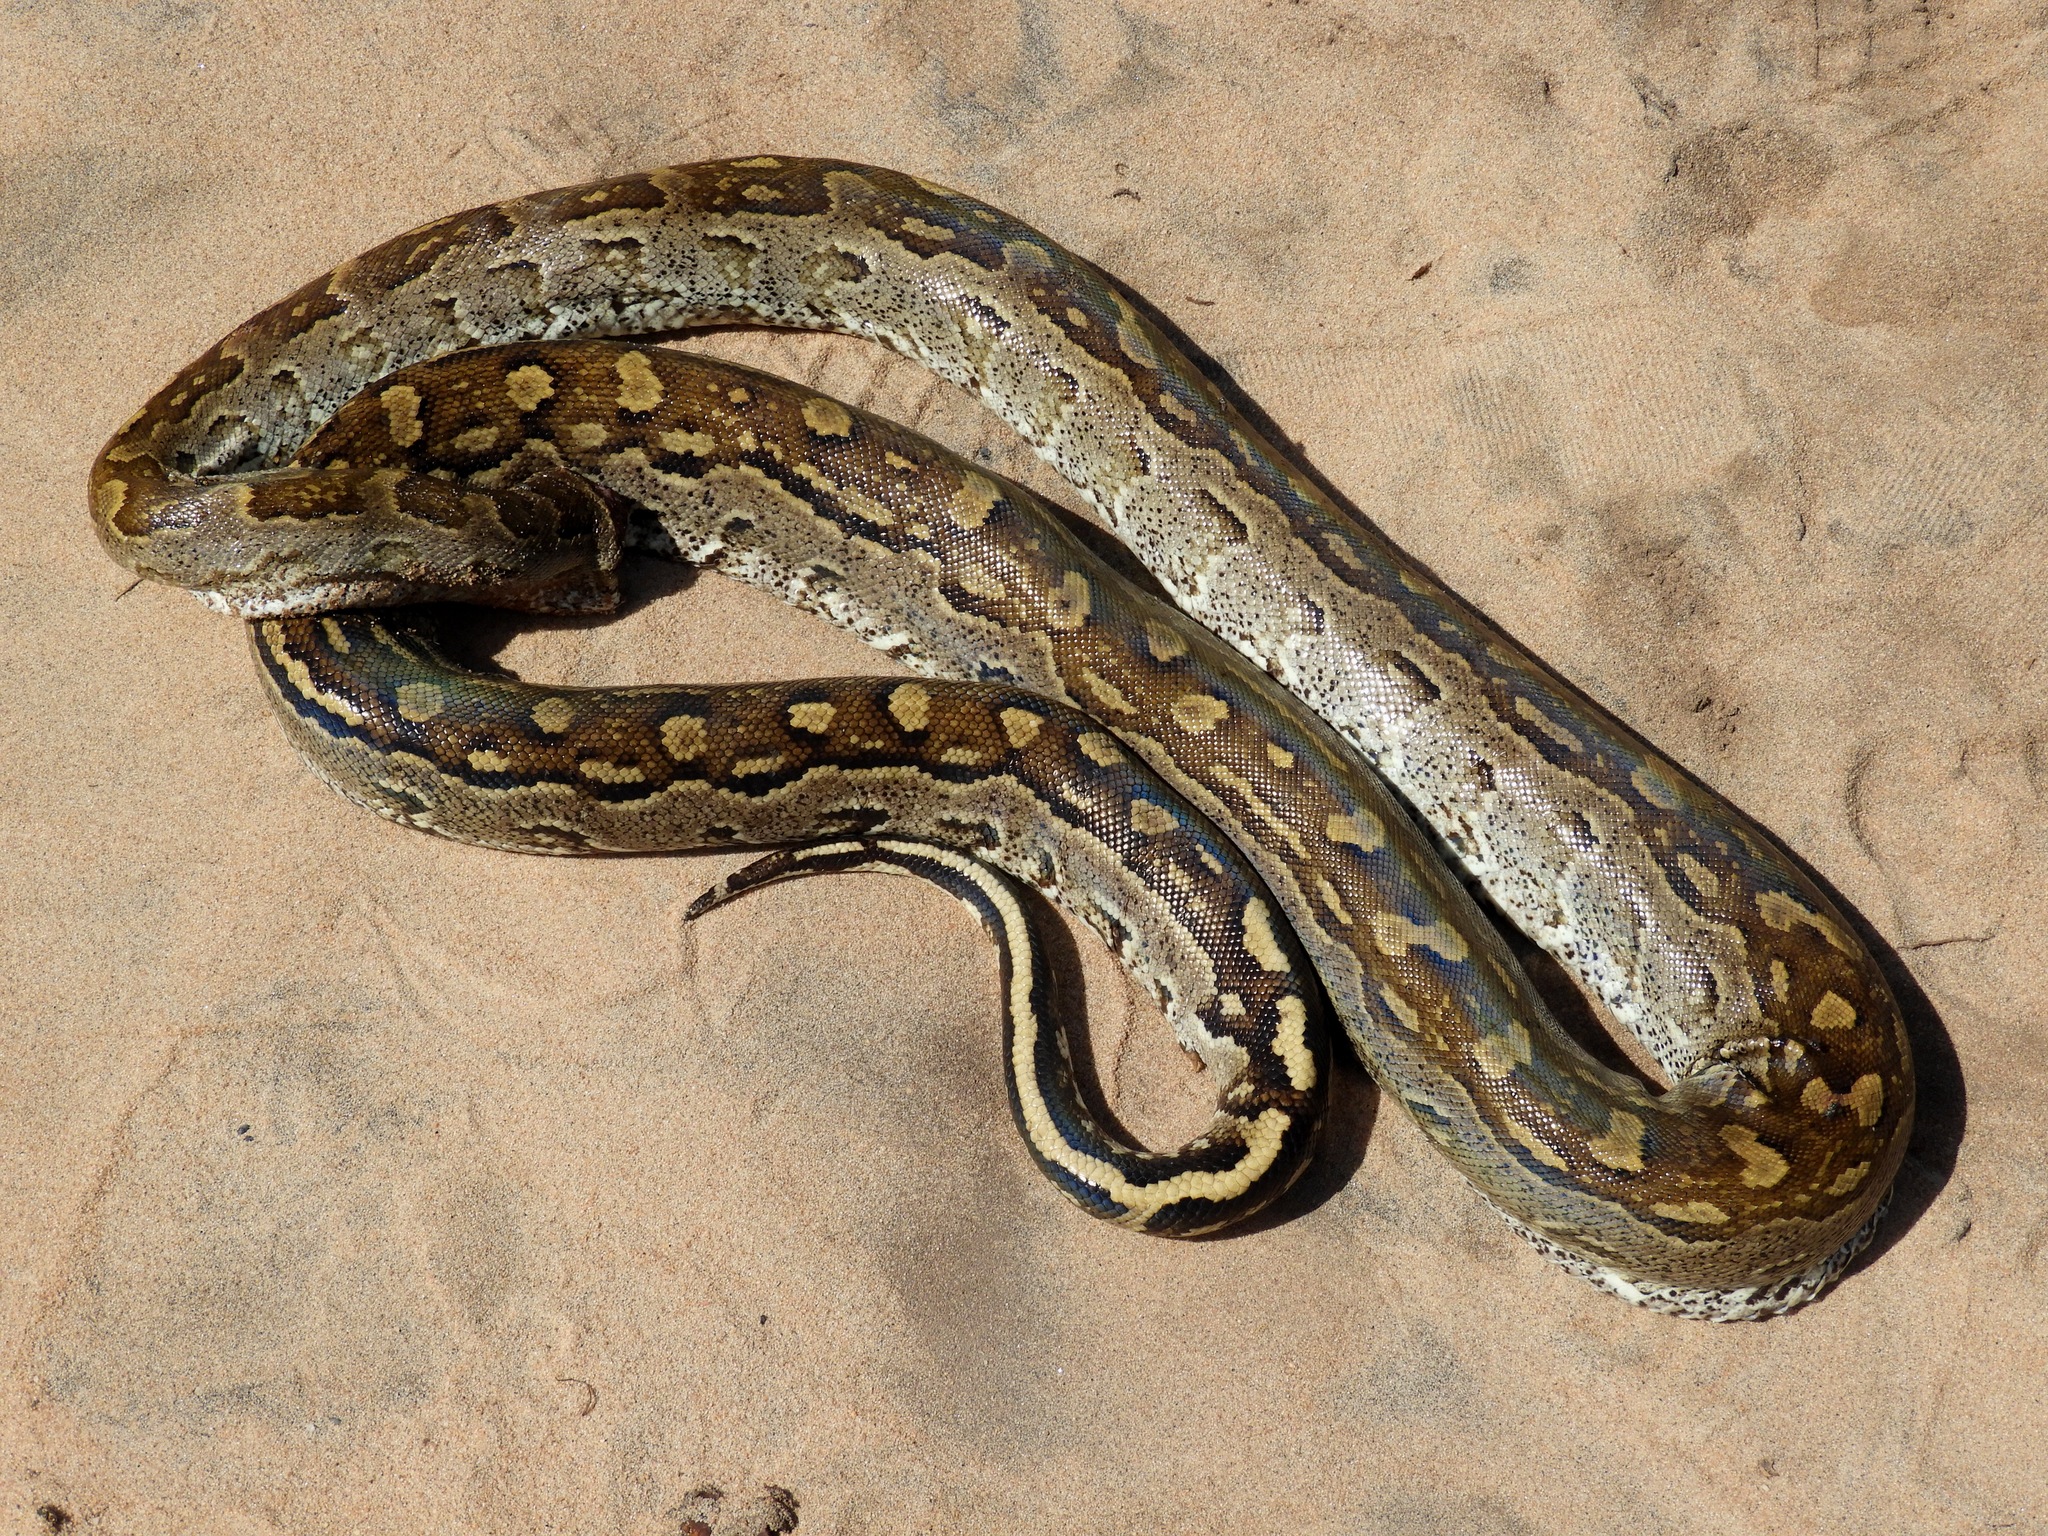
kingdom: Animalia
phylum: Chordata
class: Squamata
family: Pythonidae
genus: Python
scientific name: Python natalensis
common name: Southern african rock python
